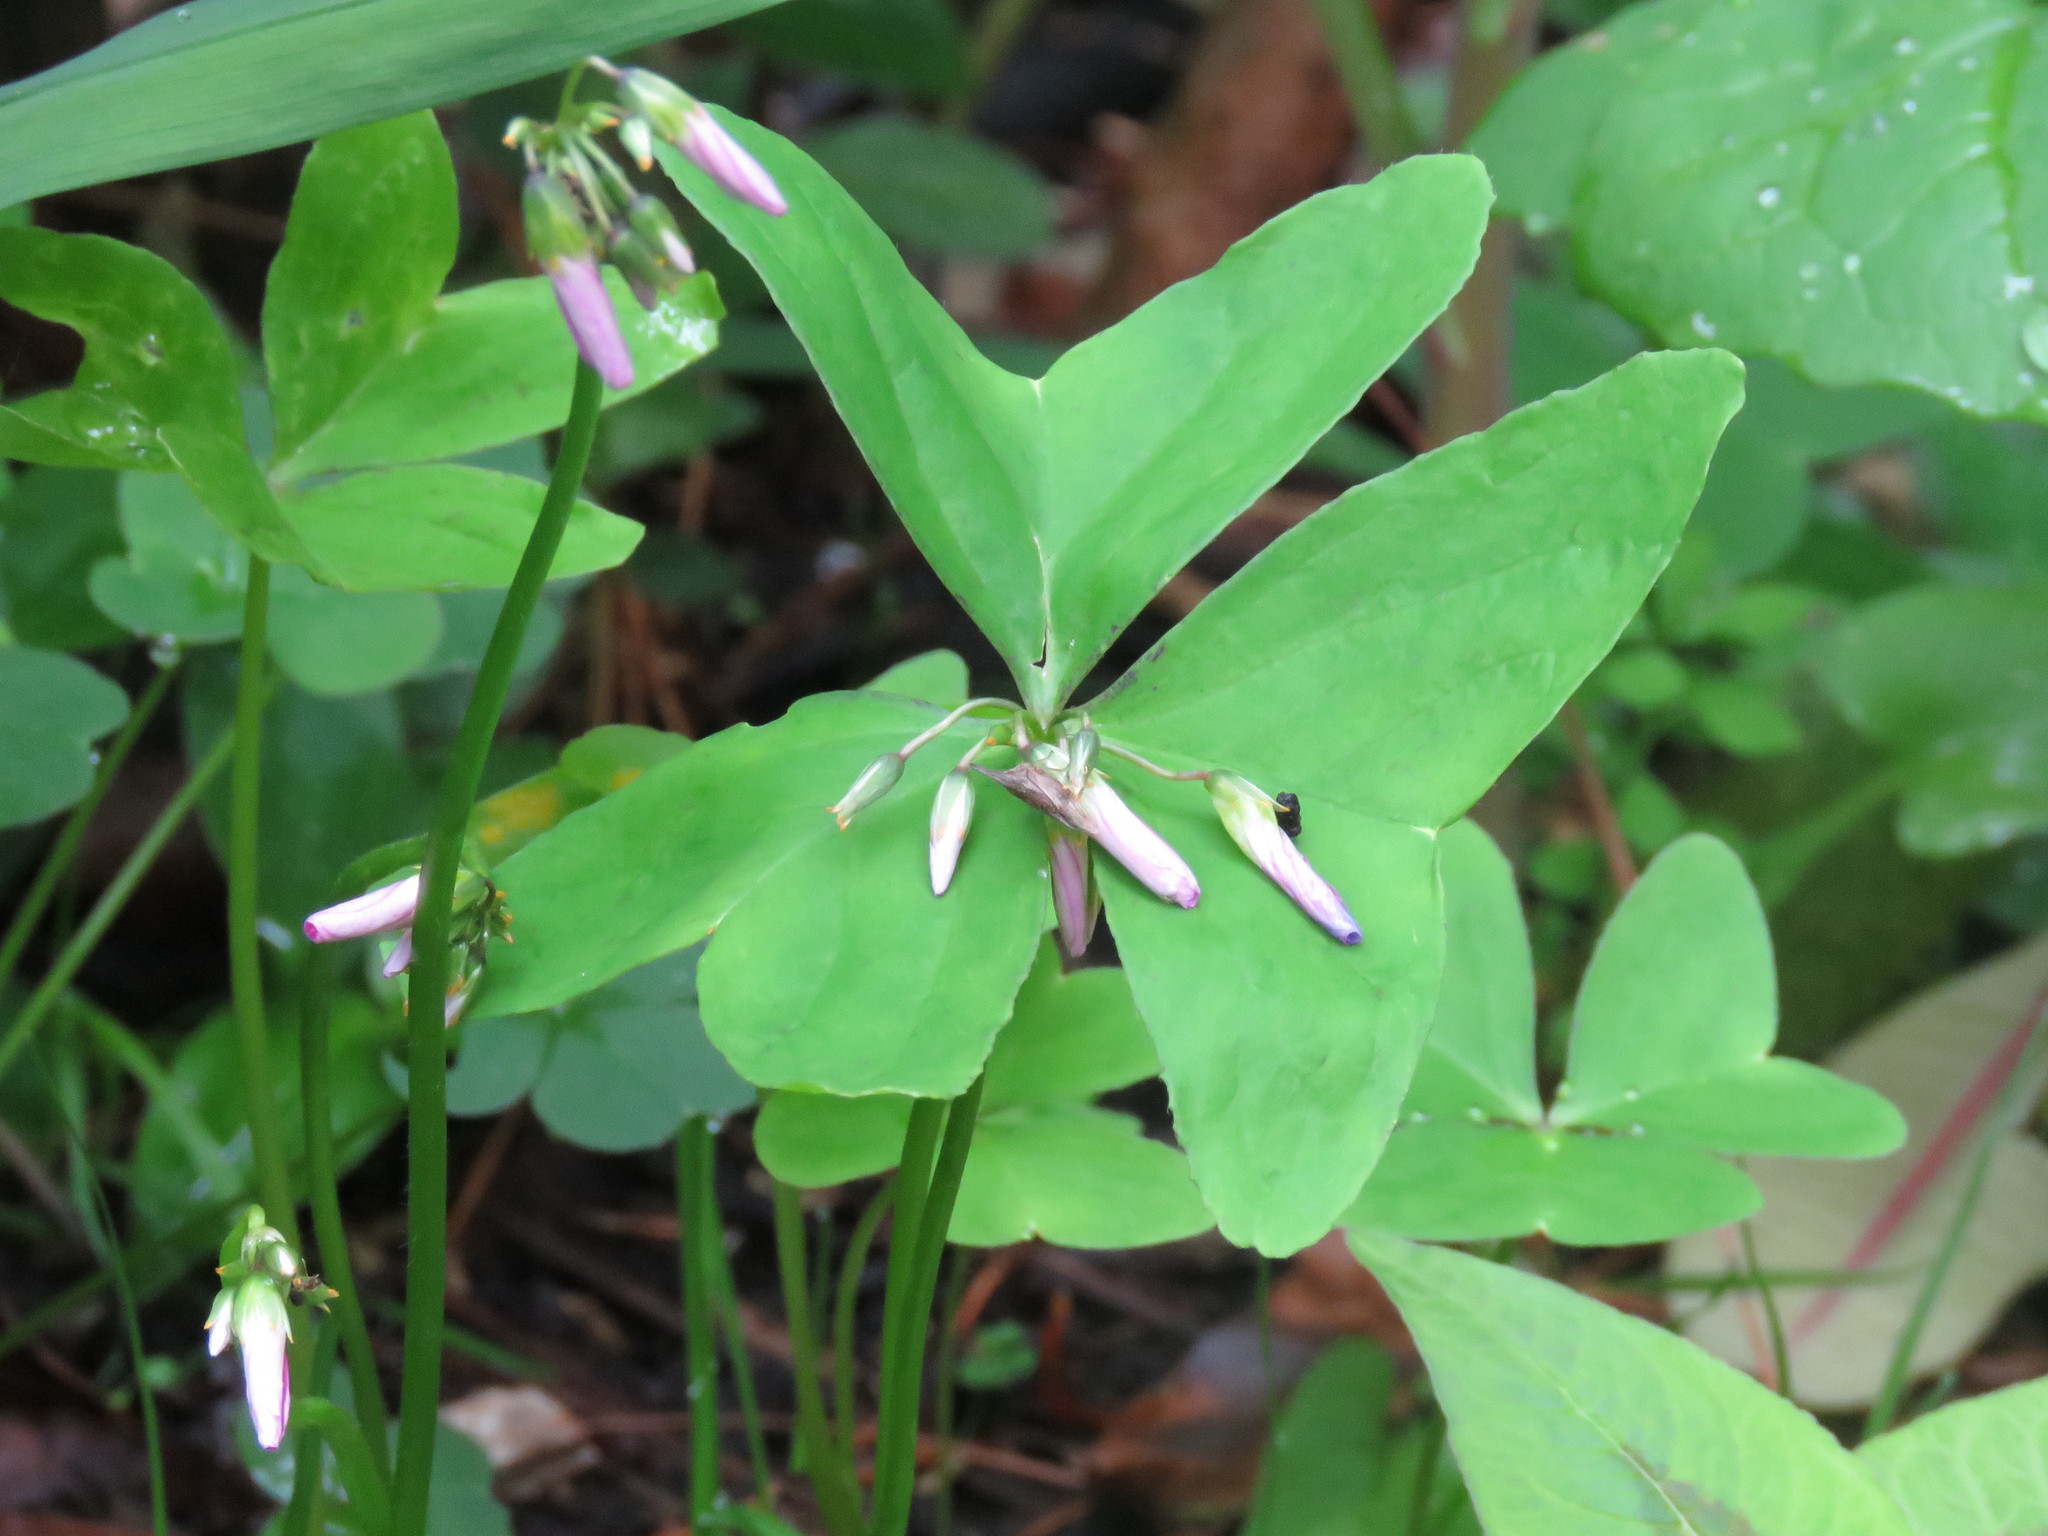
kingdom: Plantae
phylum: Tracheophyta
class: Magnoliopsida
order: Oxalidales
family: Oxalidaceae
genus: Oxalis
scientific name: Oxalis latifolia
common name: Garden pink-sorrel
